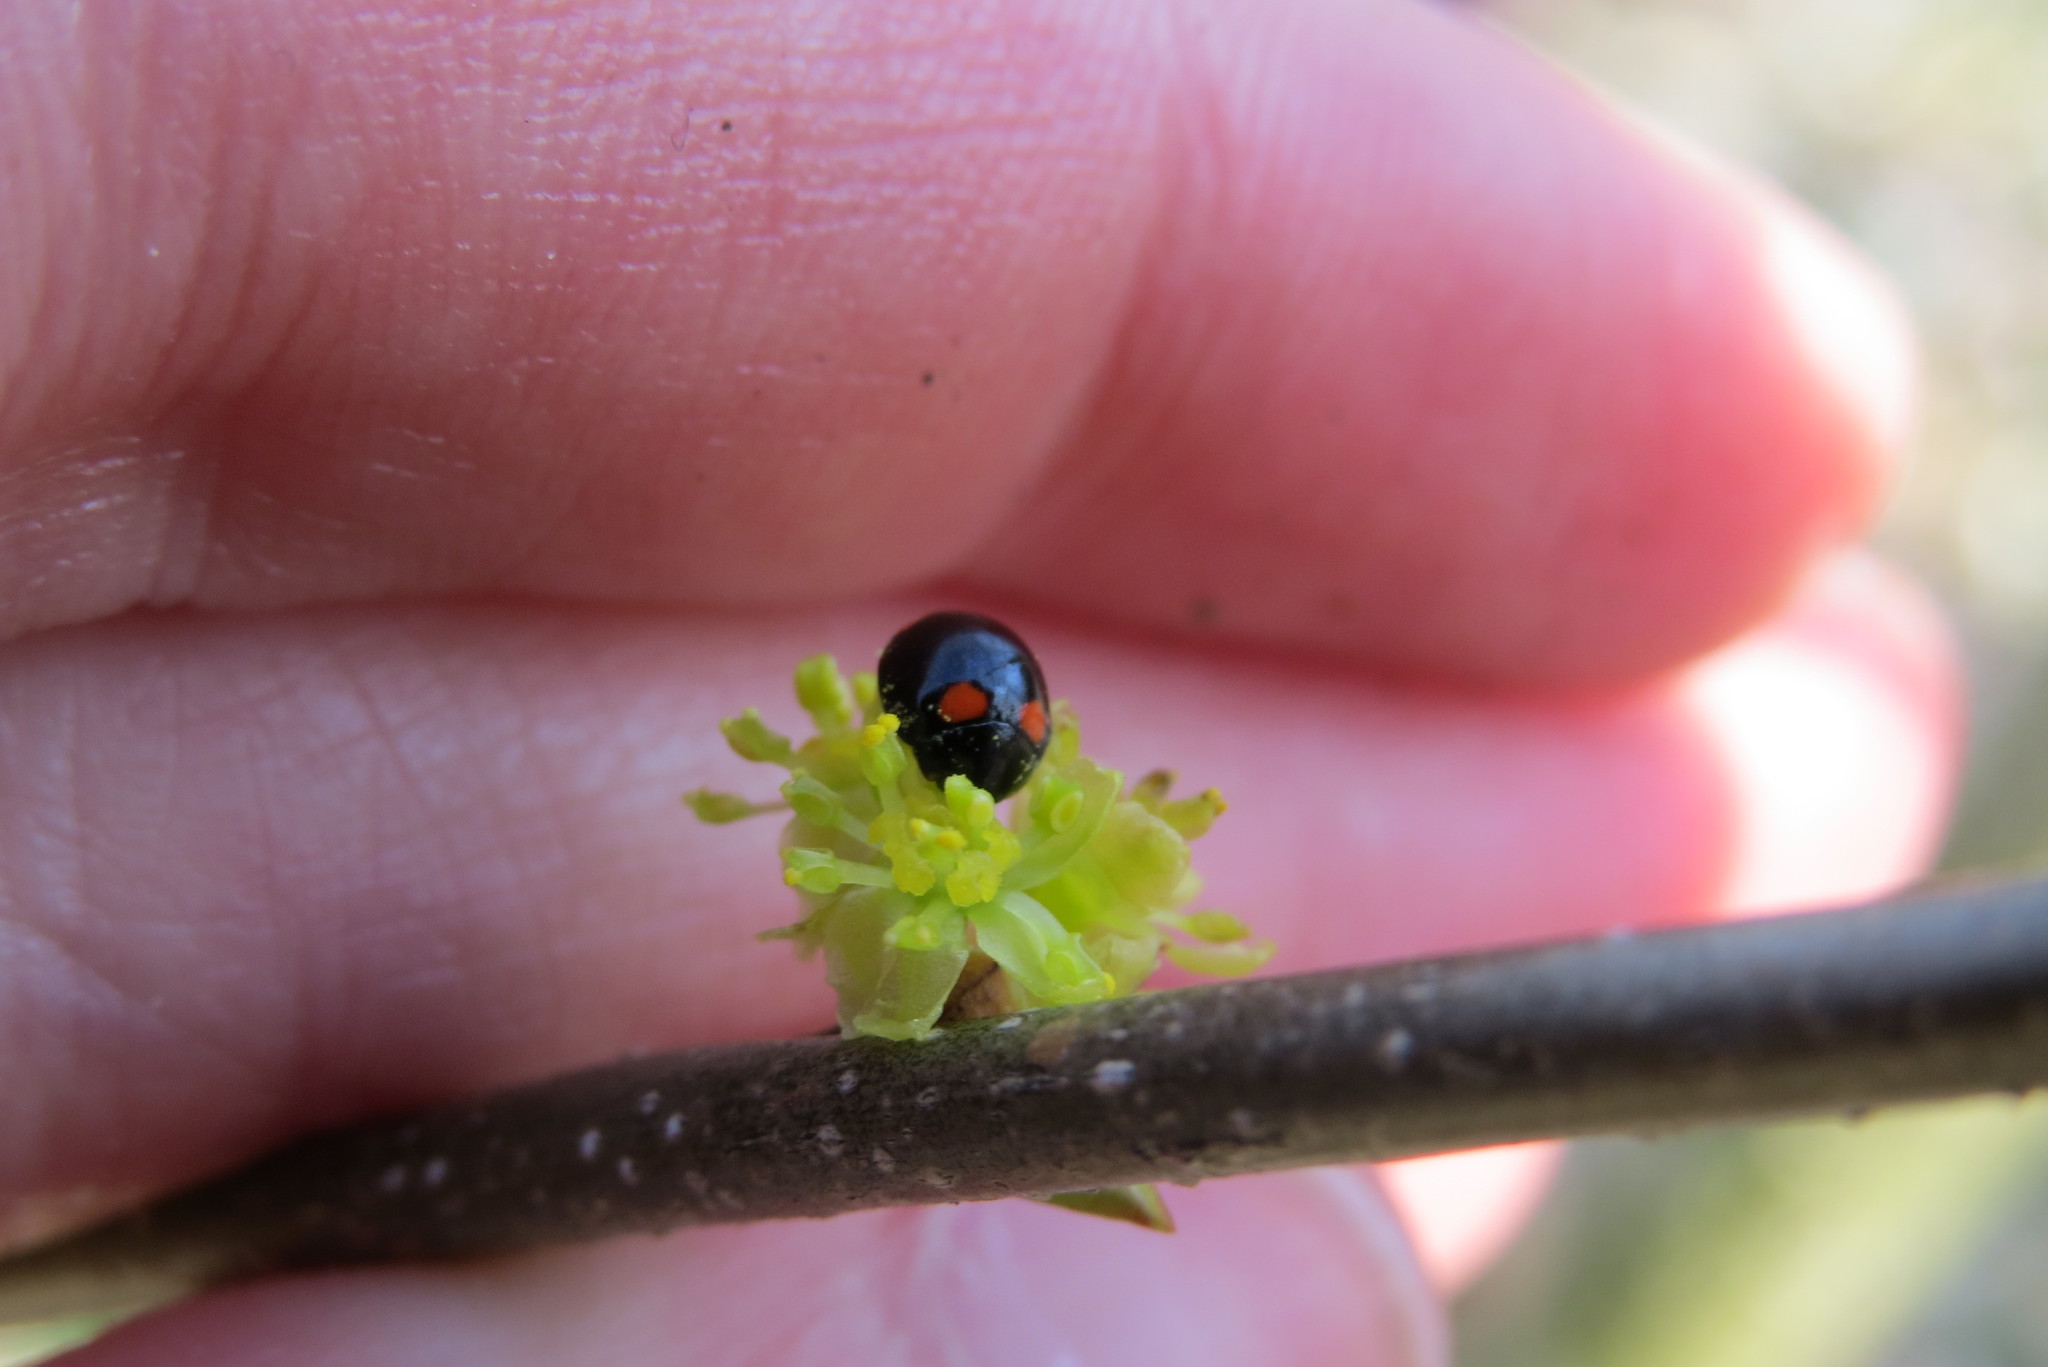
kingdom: Animalia
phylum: Arthropoda
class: Insecta
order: Coleoptera
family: Coccinellidae
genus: Brachiacantha
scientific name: Brachiacantha quadripunctata
